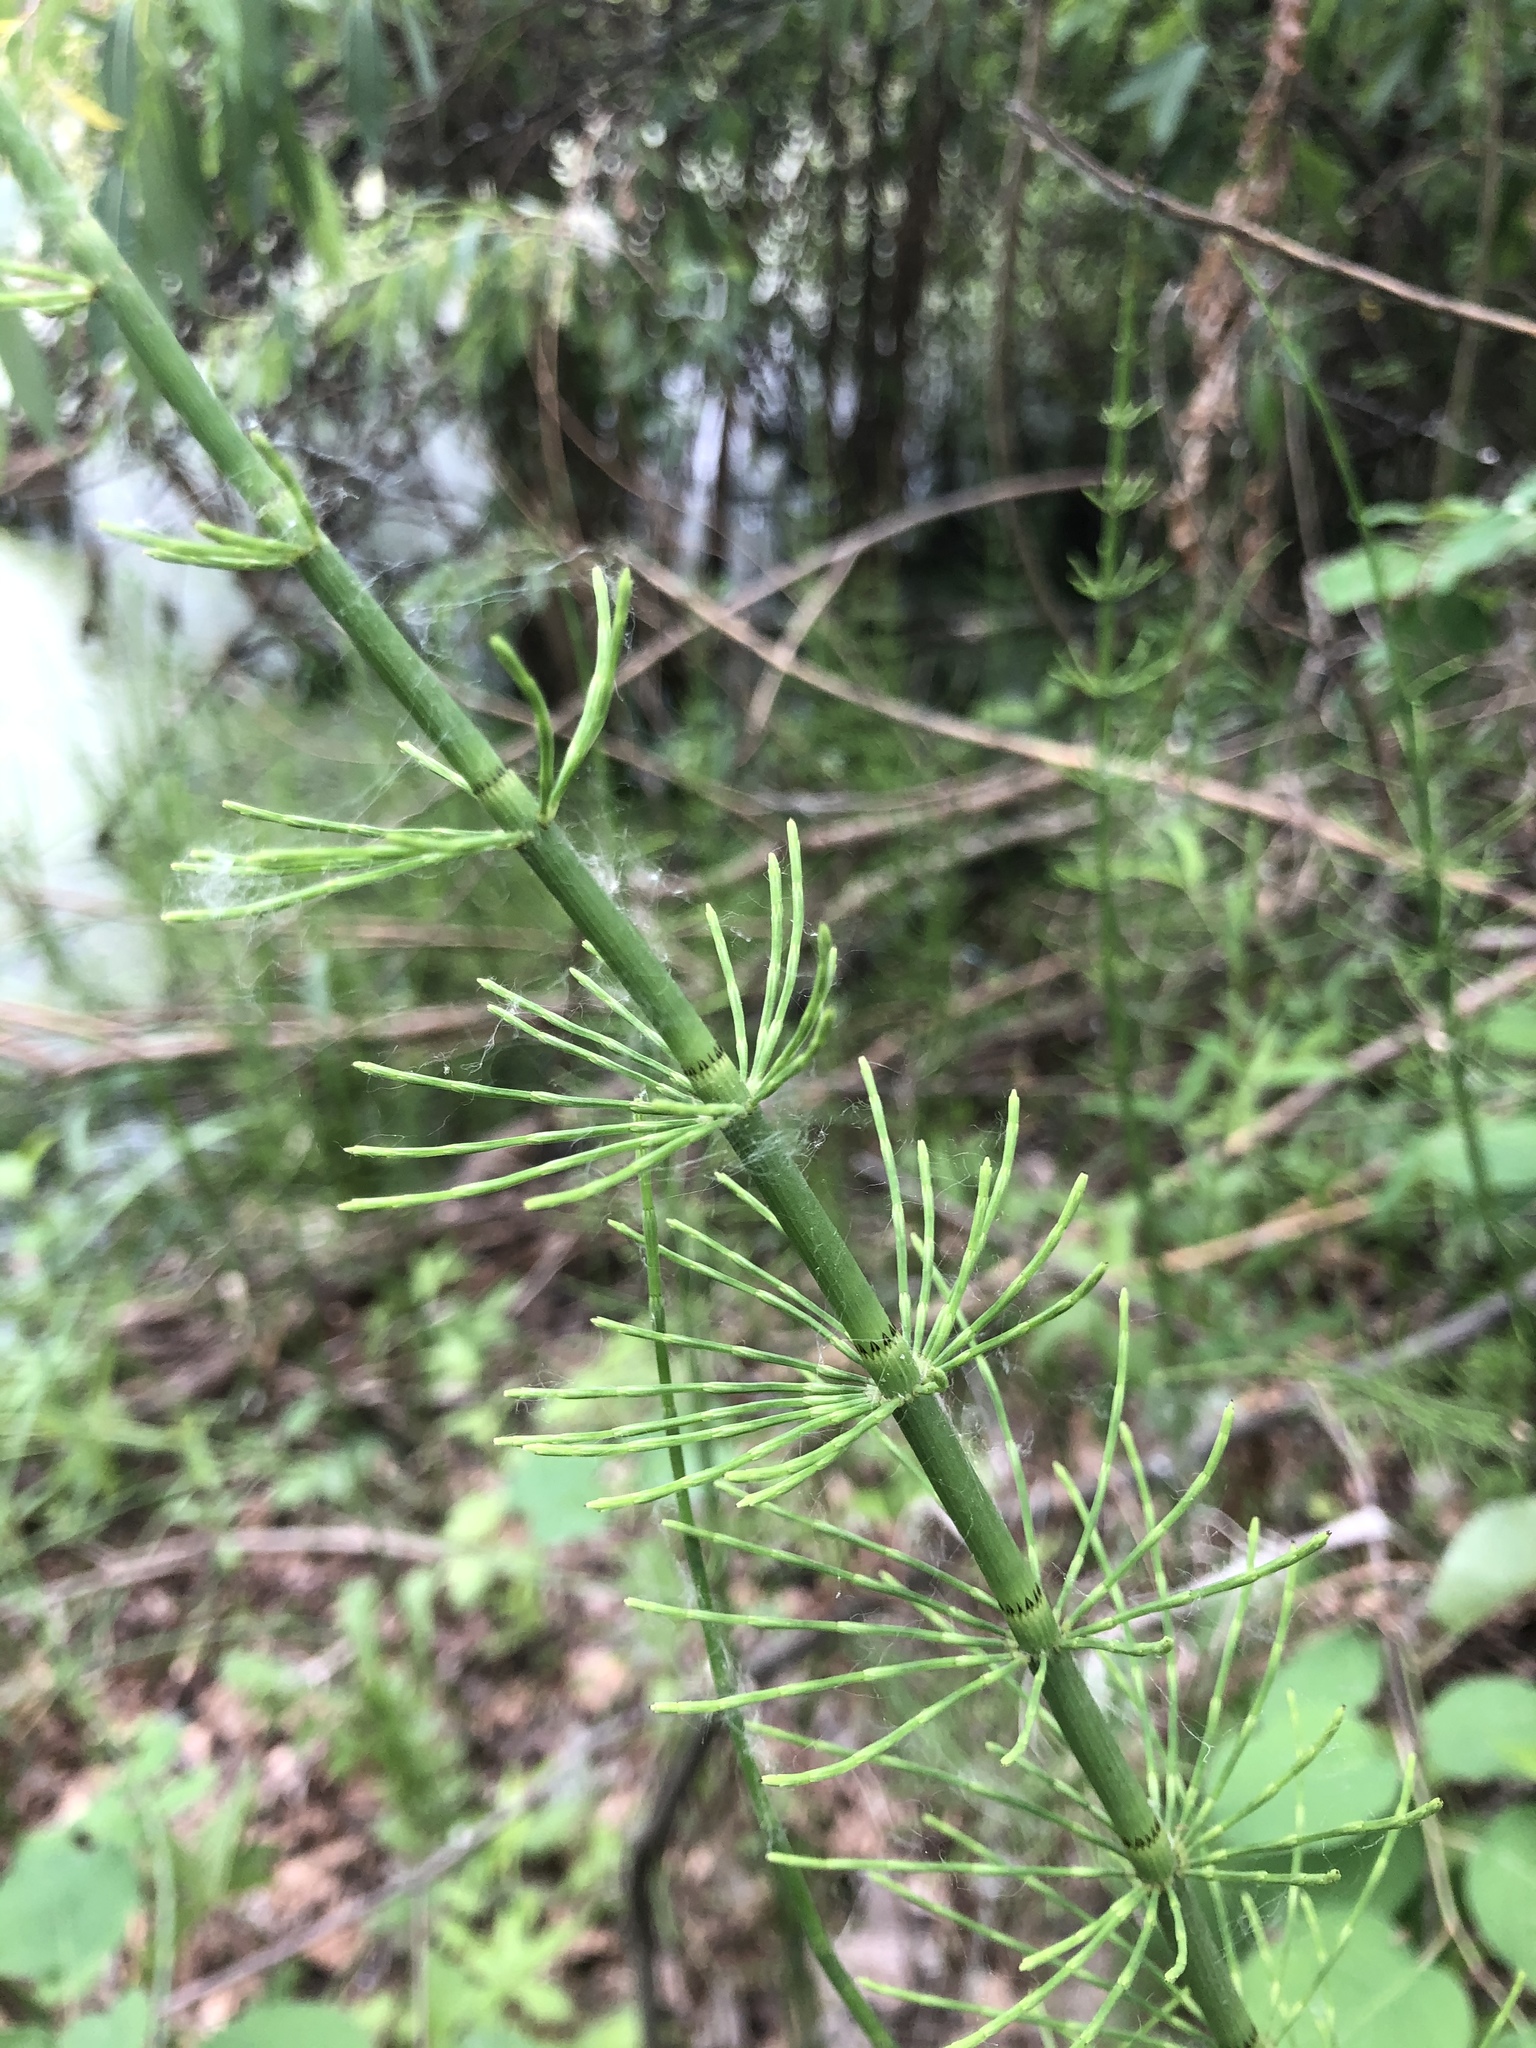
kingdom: Plantae
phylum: Tracheophyta
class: Polypodiopsida
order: Equisetales
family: Equisetaceae
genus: Equisetum
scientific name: Equisetum fluviatile
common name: Water horsetail
